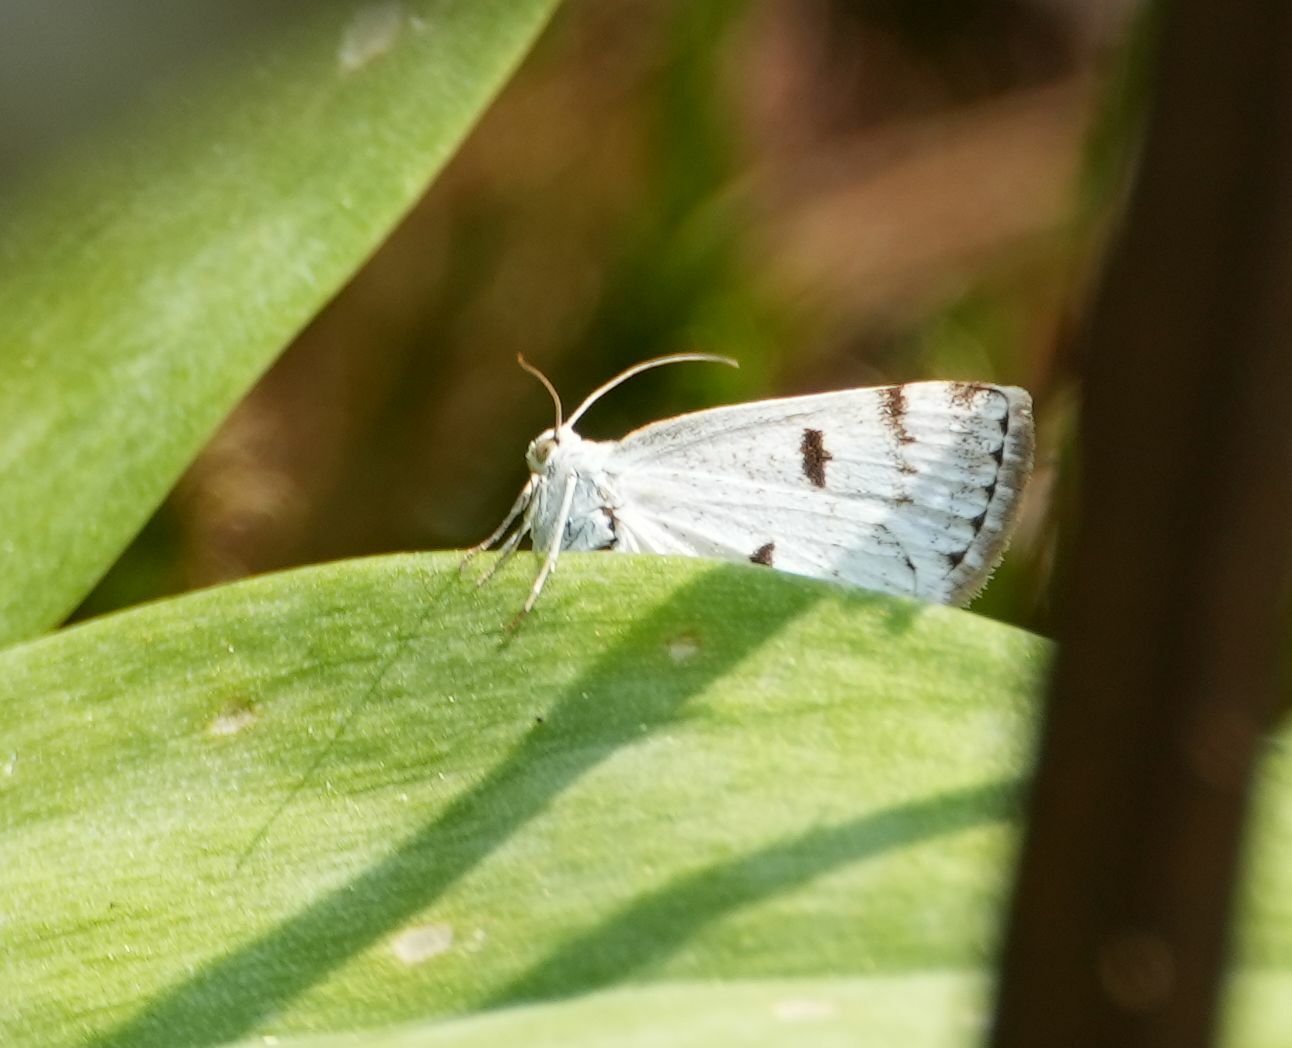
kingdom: Animalia
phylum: Arthropoda
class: Insecta
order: Lepidoptera
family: Geometridae
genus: Lomographa
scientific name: Lomographa semiclarata
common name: Bluish spring moth
